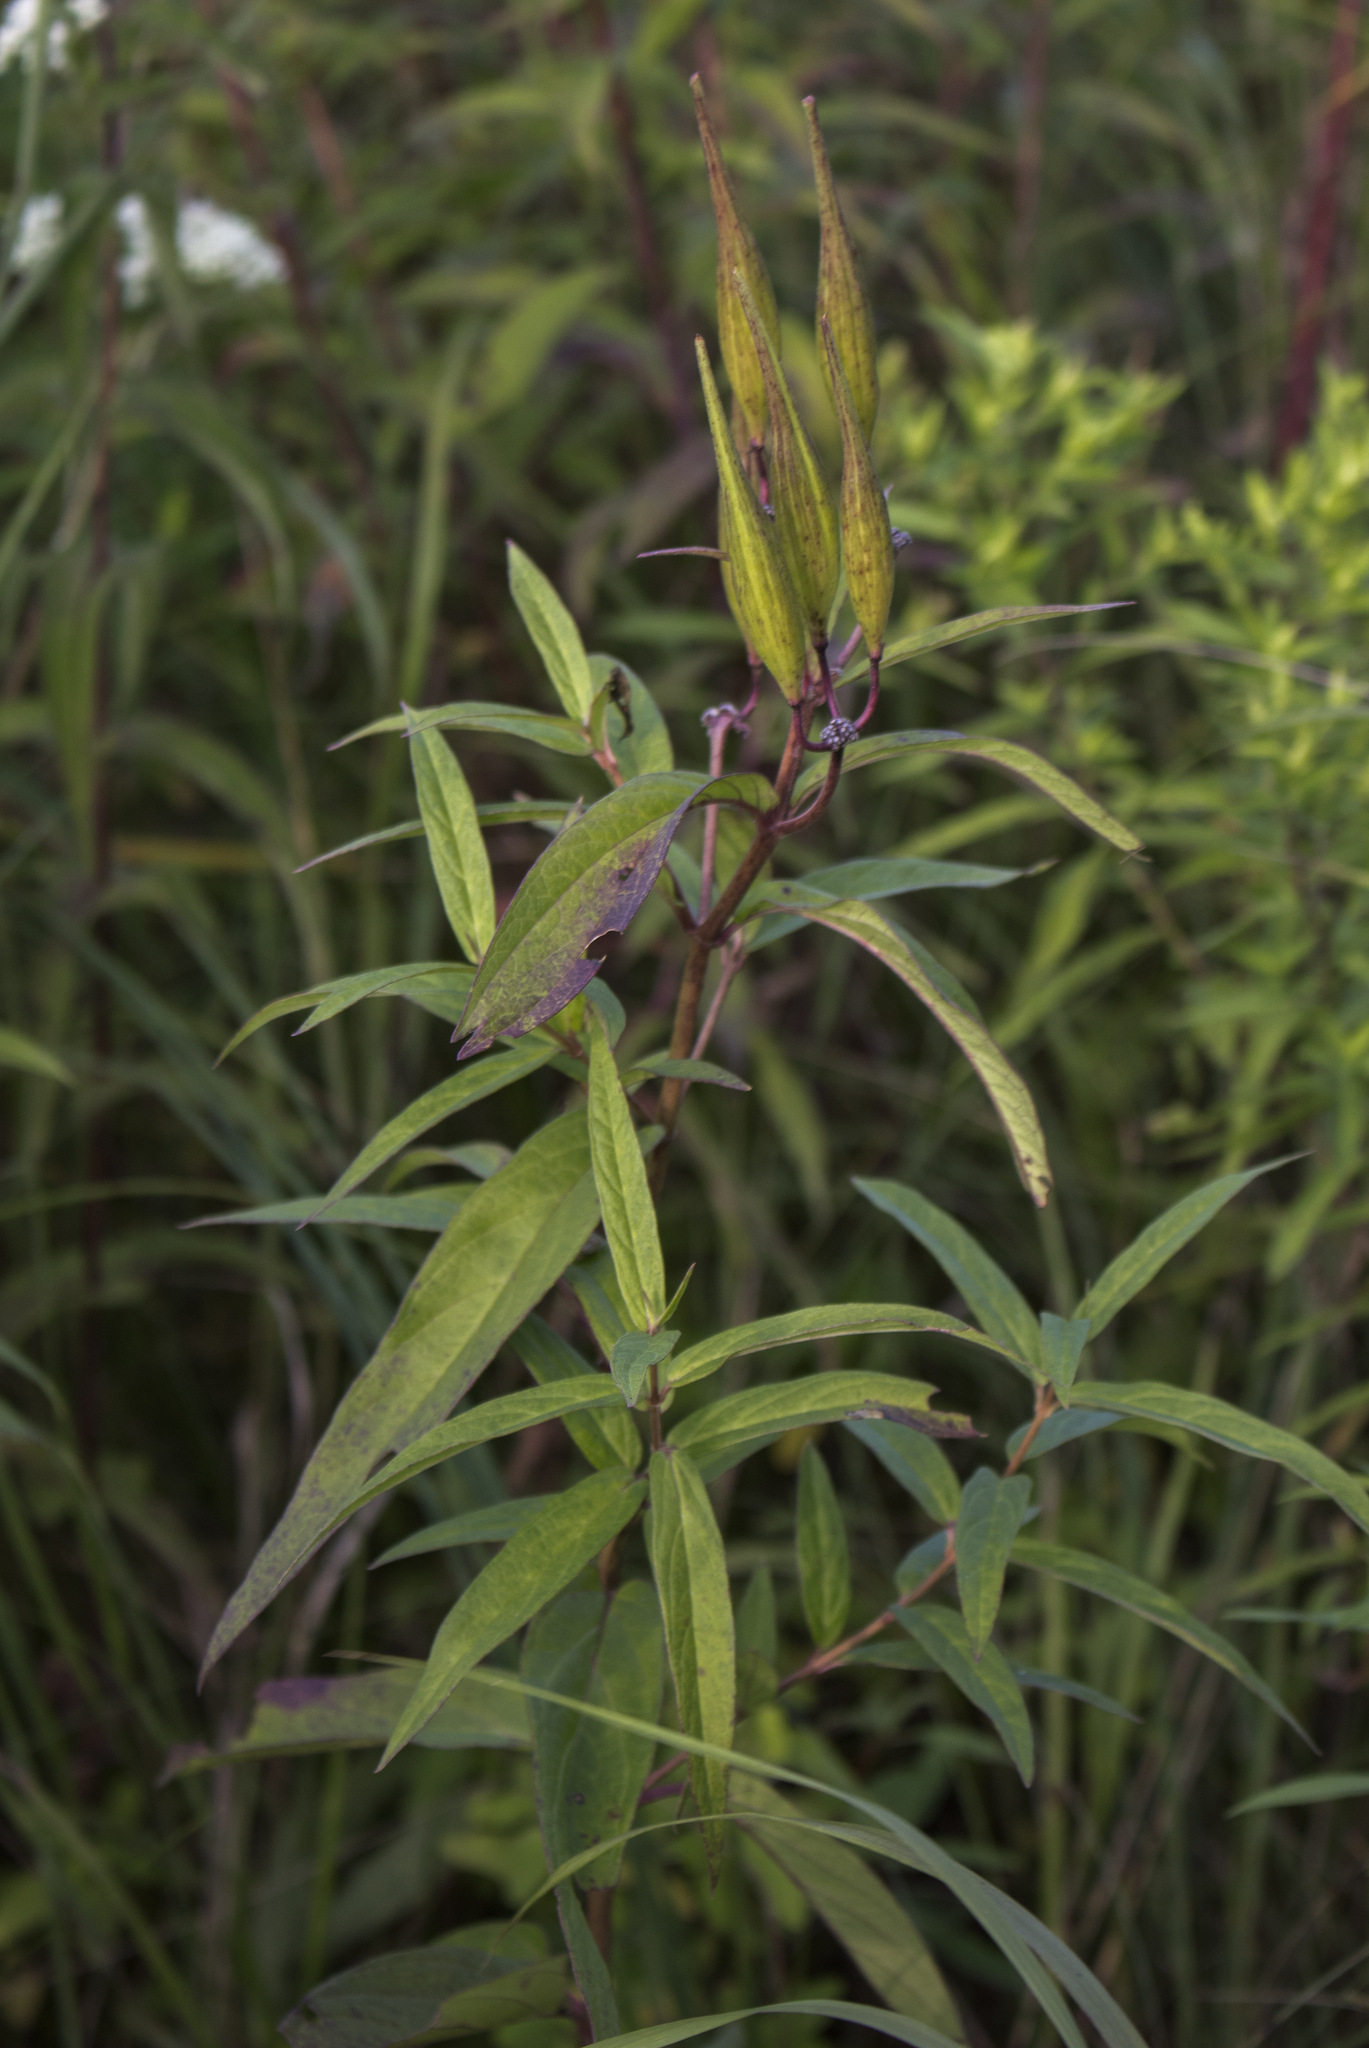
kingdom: Plantae
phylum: Tracheophyta
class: Magnoliopsida
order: Gentianales
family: Apocynaceae
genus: Asclepias
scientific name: Asclepias incarnata
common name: Swamp milkweed
